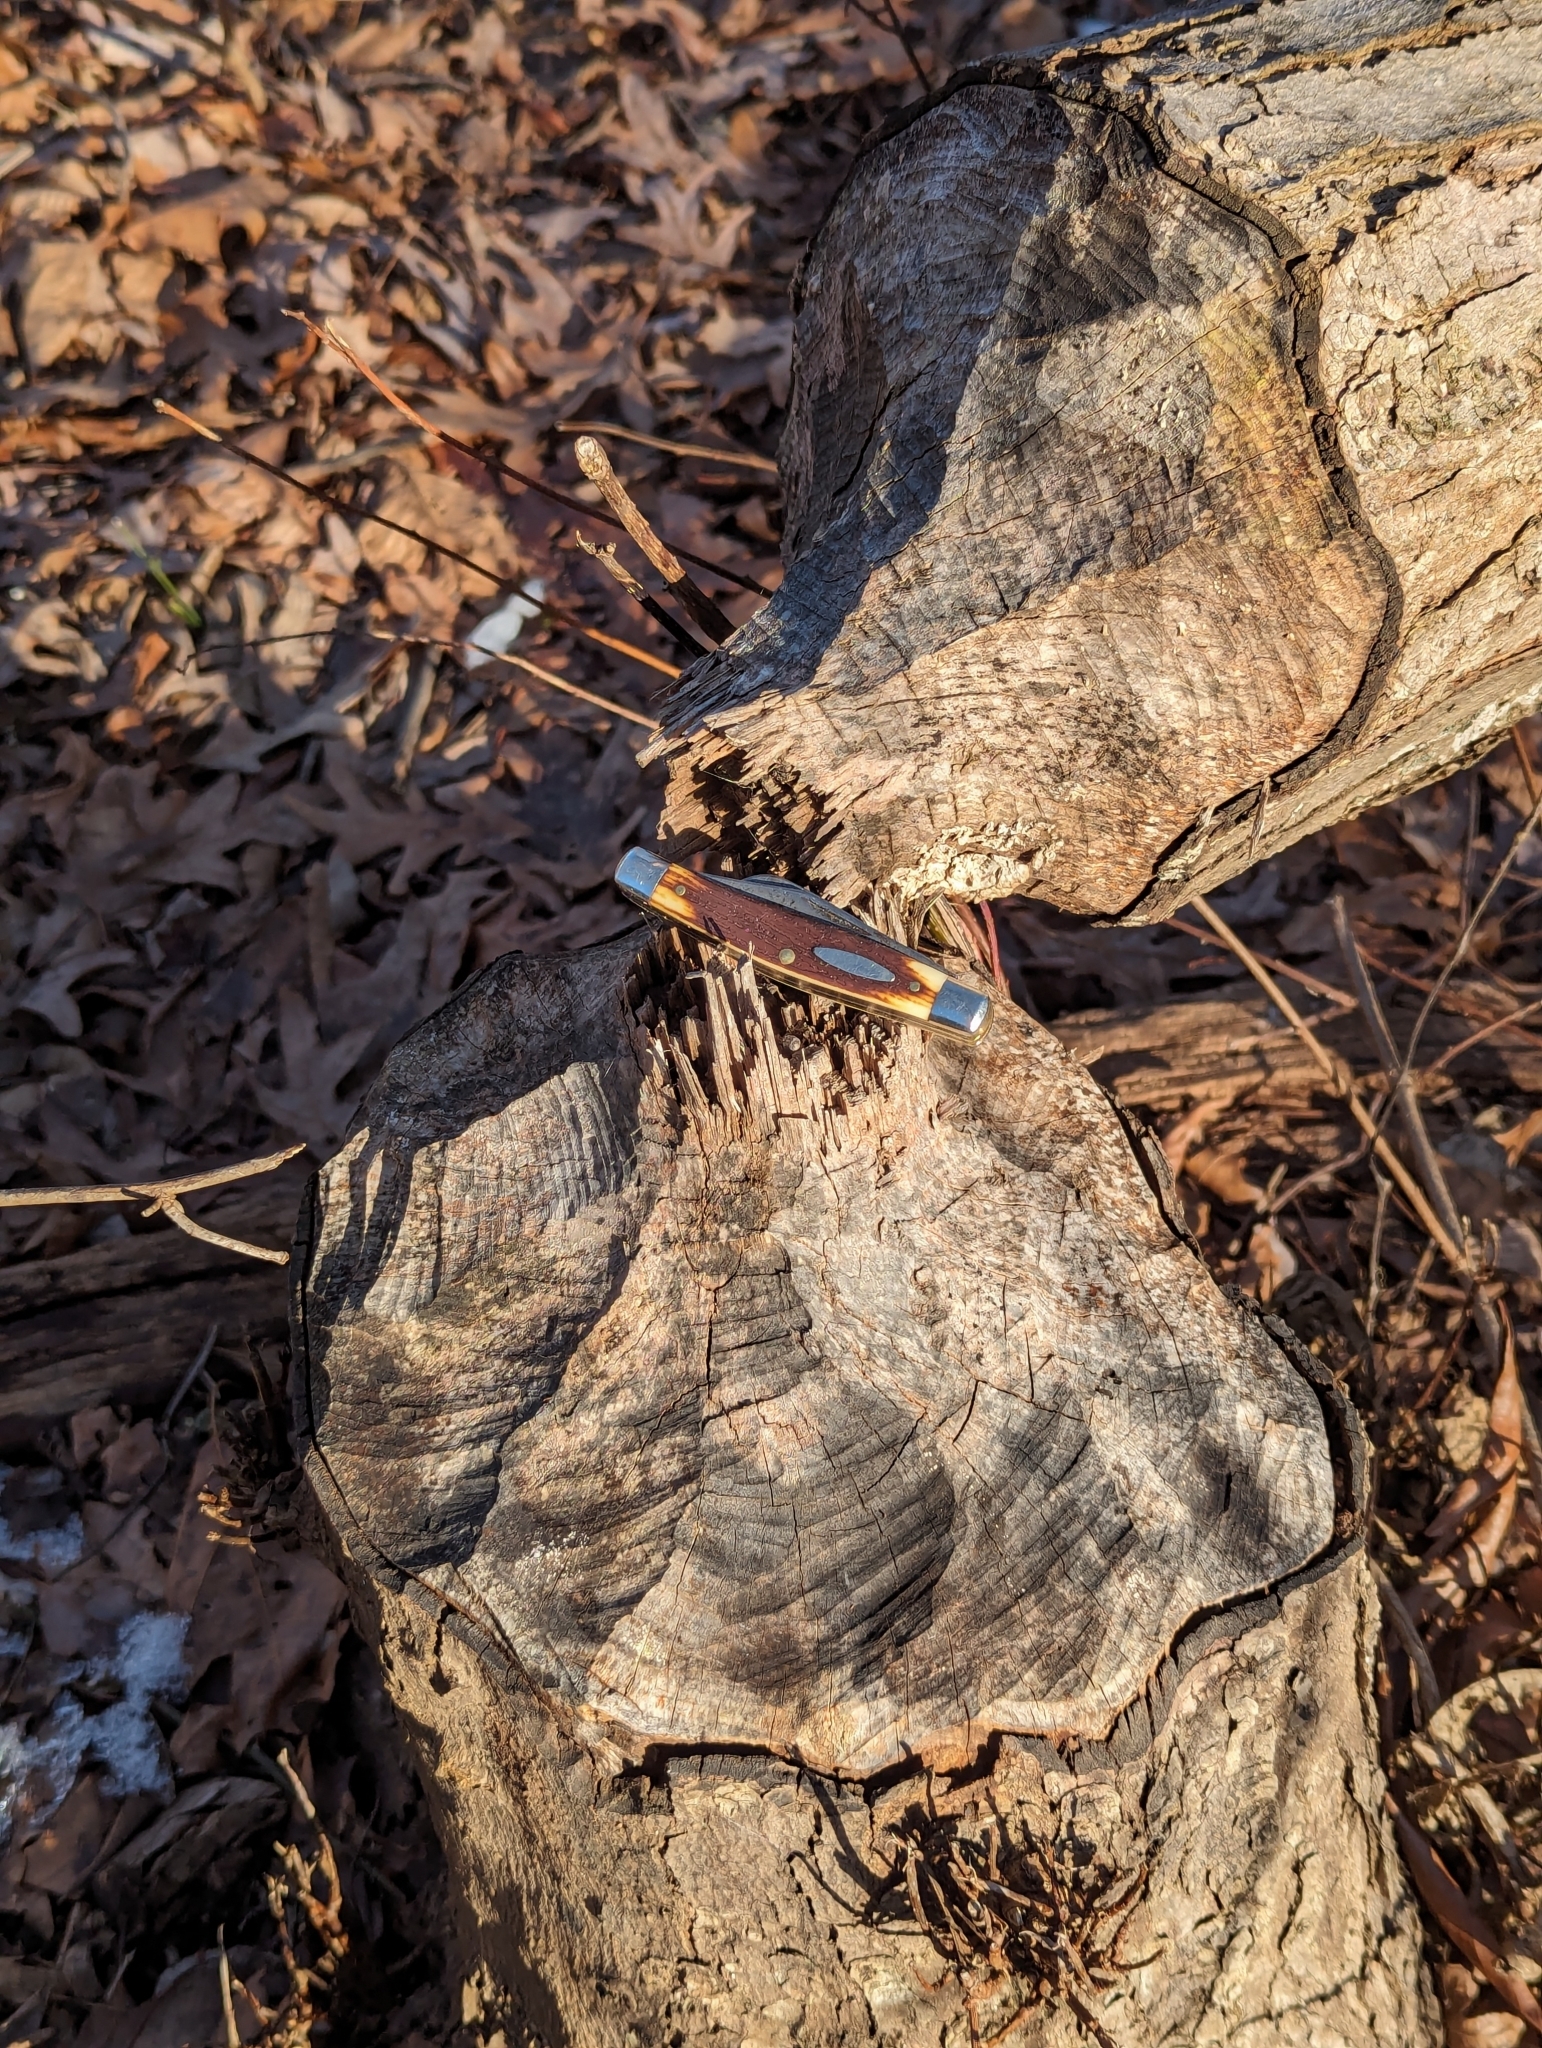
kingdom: Animalia
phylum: Chordata
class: Mammalia
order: Rodentia
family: Castoridae
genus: Castor
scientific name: Castor canadensis
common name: American beaver
